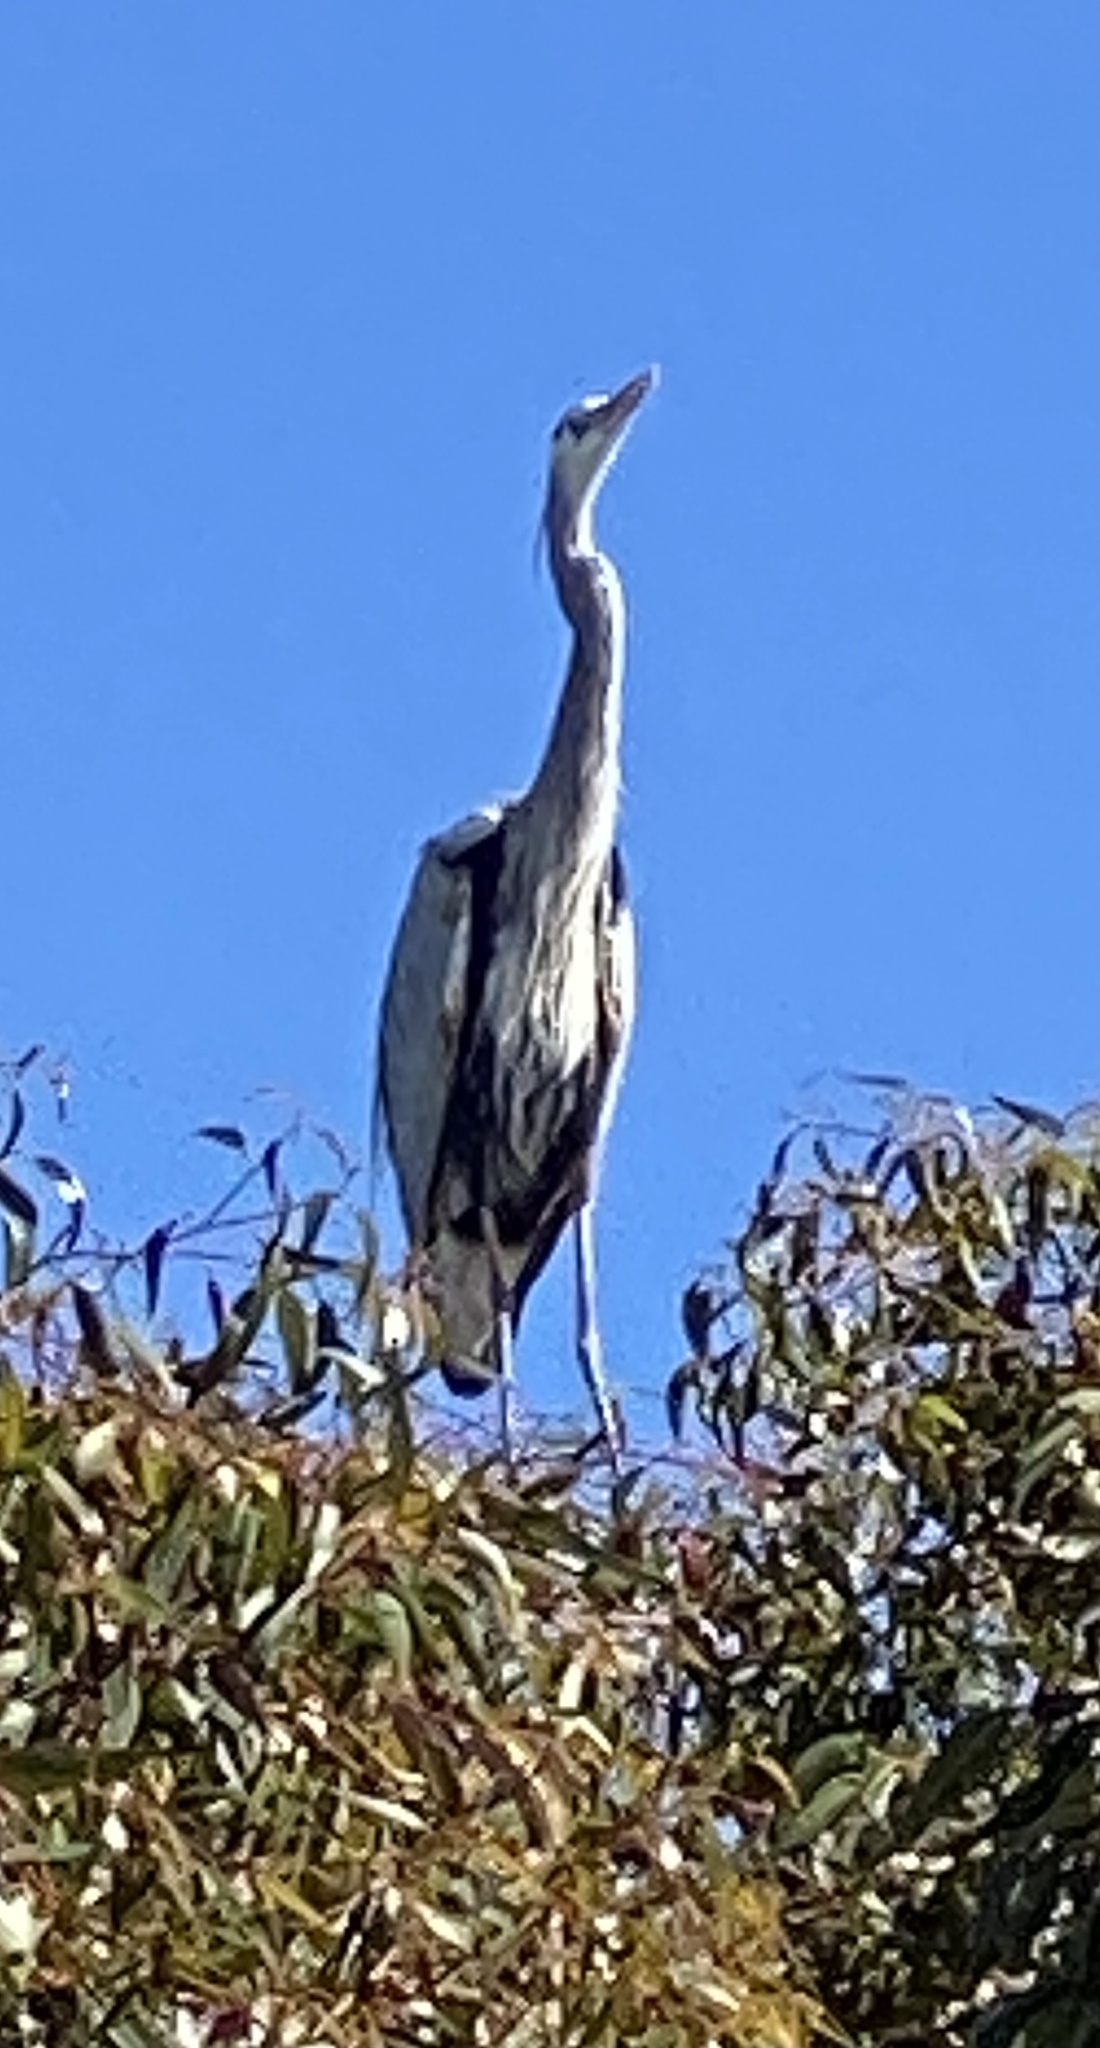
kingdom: Animalia
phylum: Chordata
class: Aves
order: Pelecaniformes
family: Ardeidae
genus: Ardea
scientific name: Ardea herodias
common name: Great blue heron
